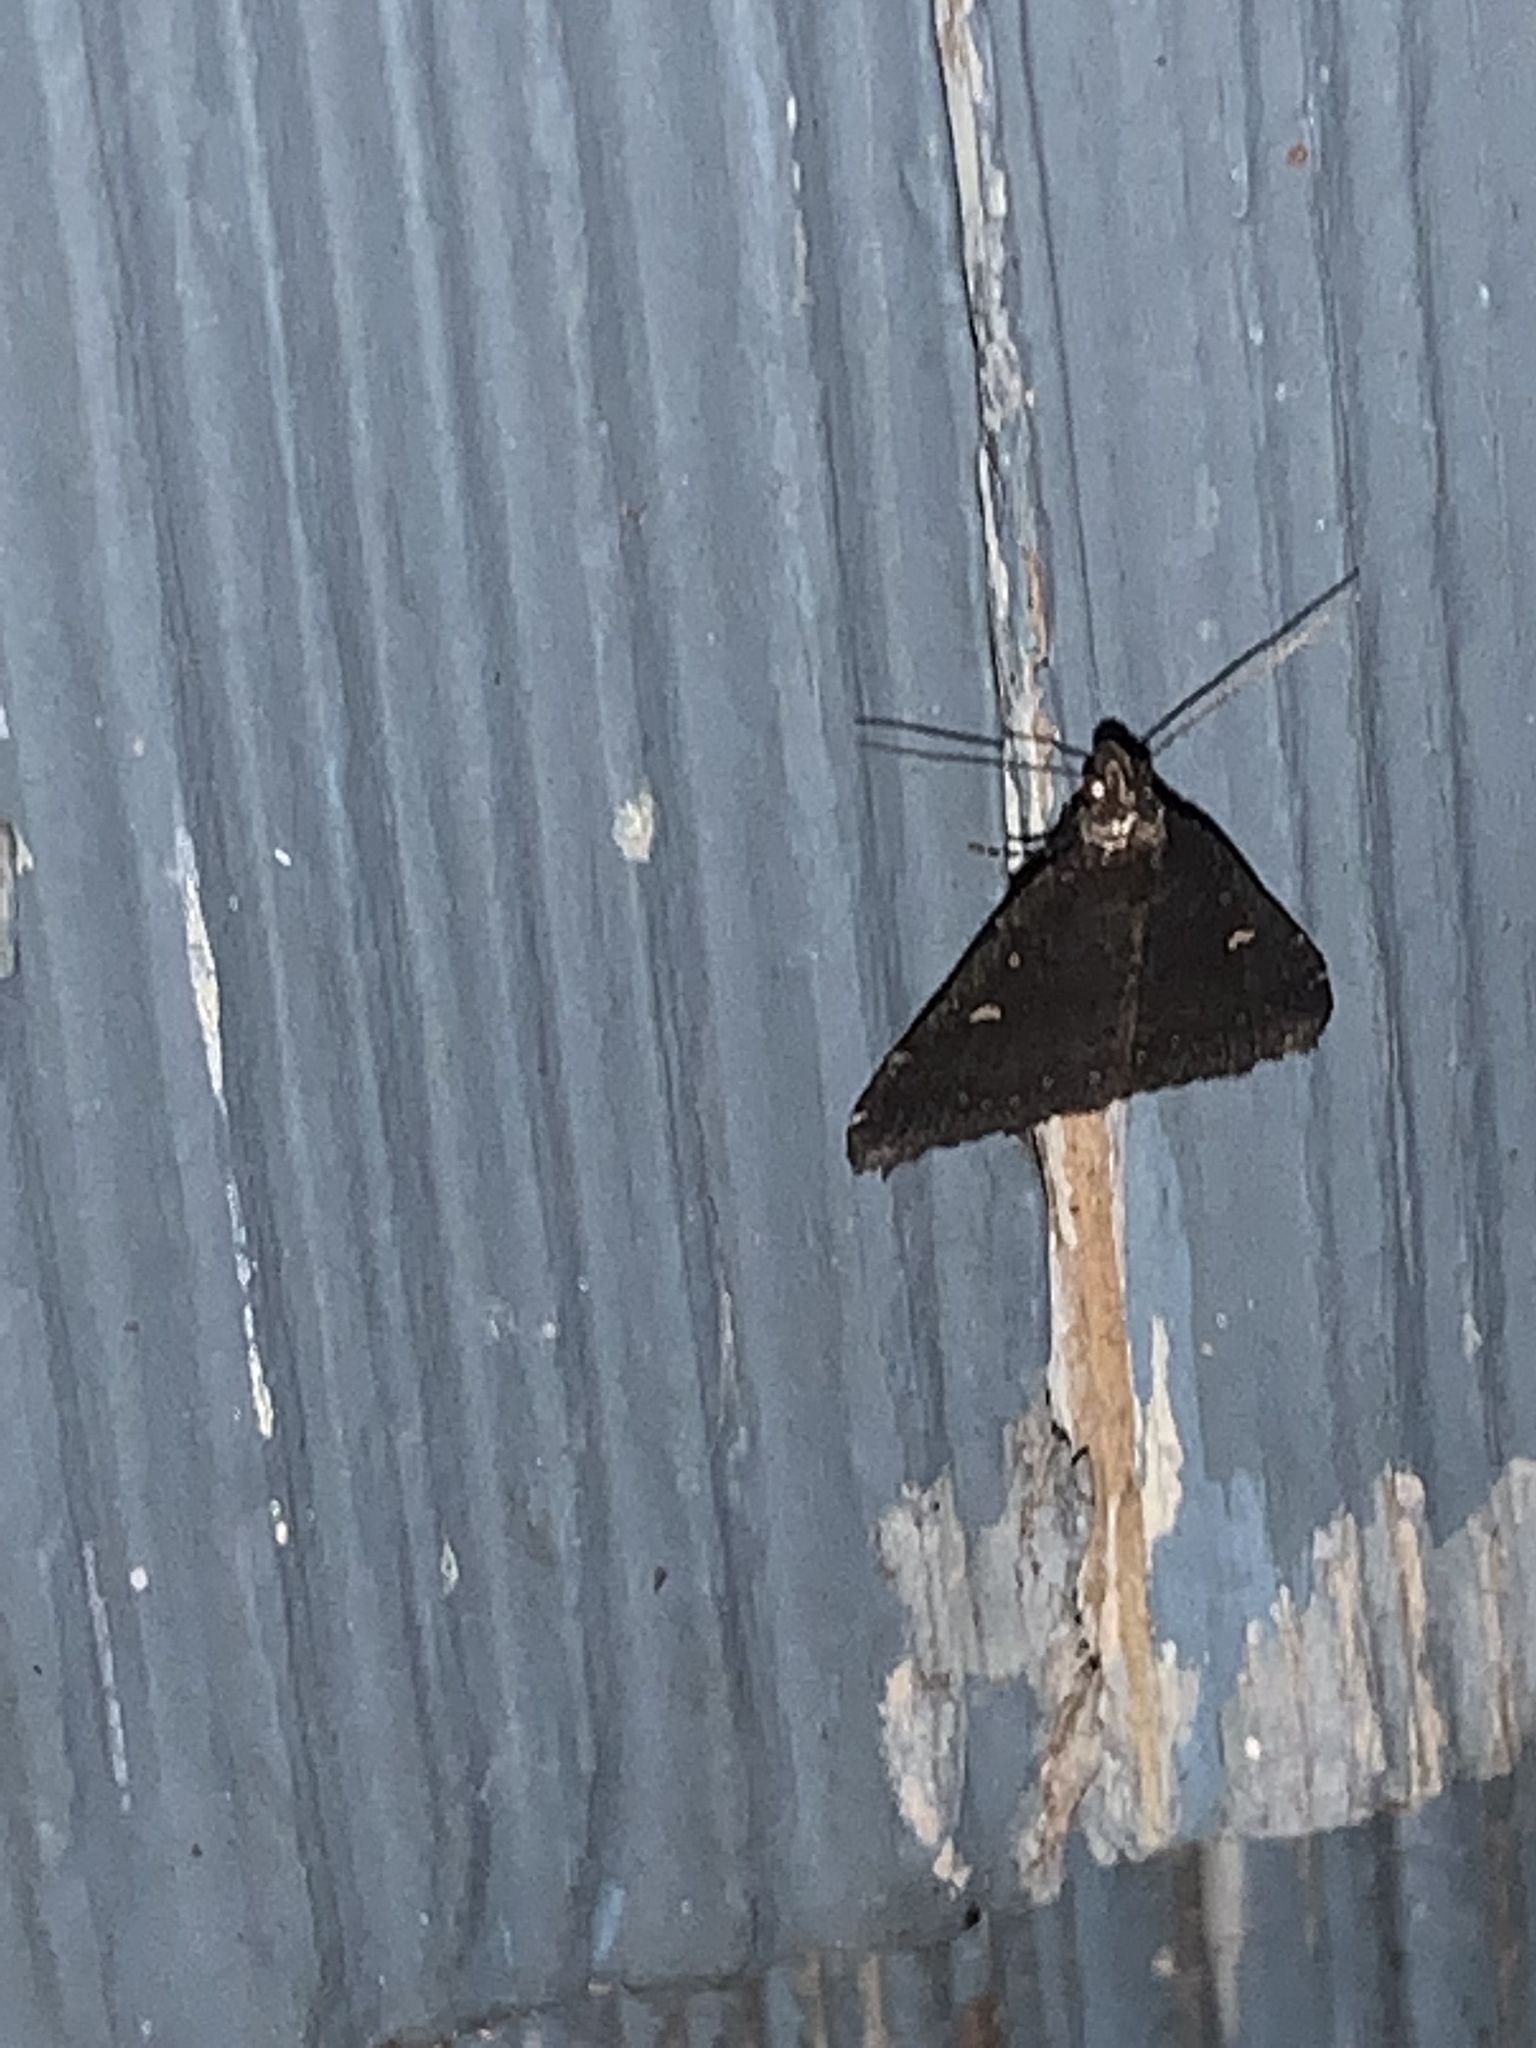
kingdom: Animalia
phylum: Arthropoda
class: Insecta
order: Lepidoptera
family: Erebidae
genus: Tetanolita
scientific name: Tetanolita mynesalis
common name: Smoky tetanolita moth
